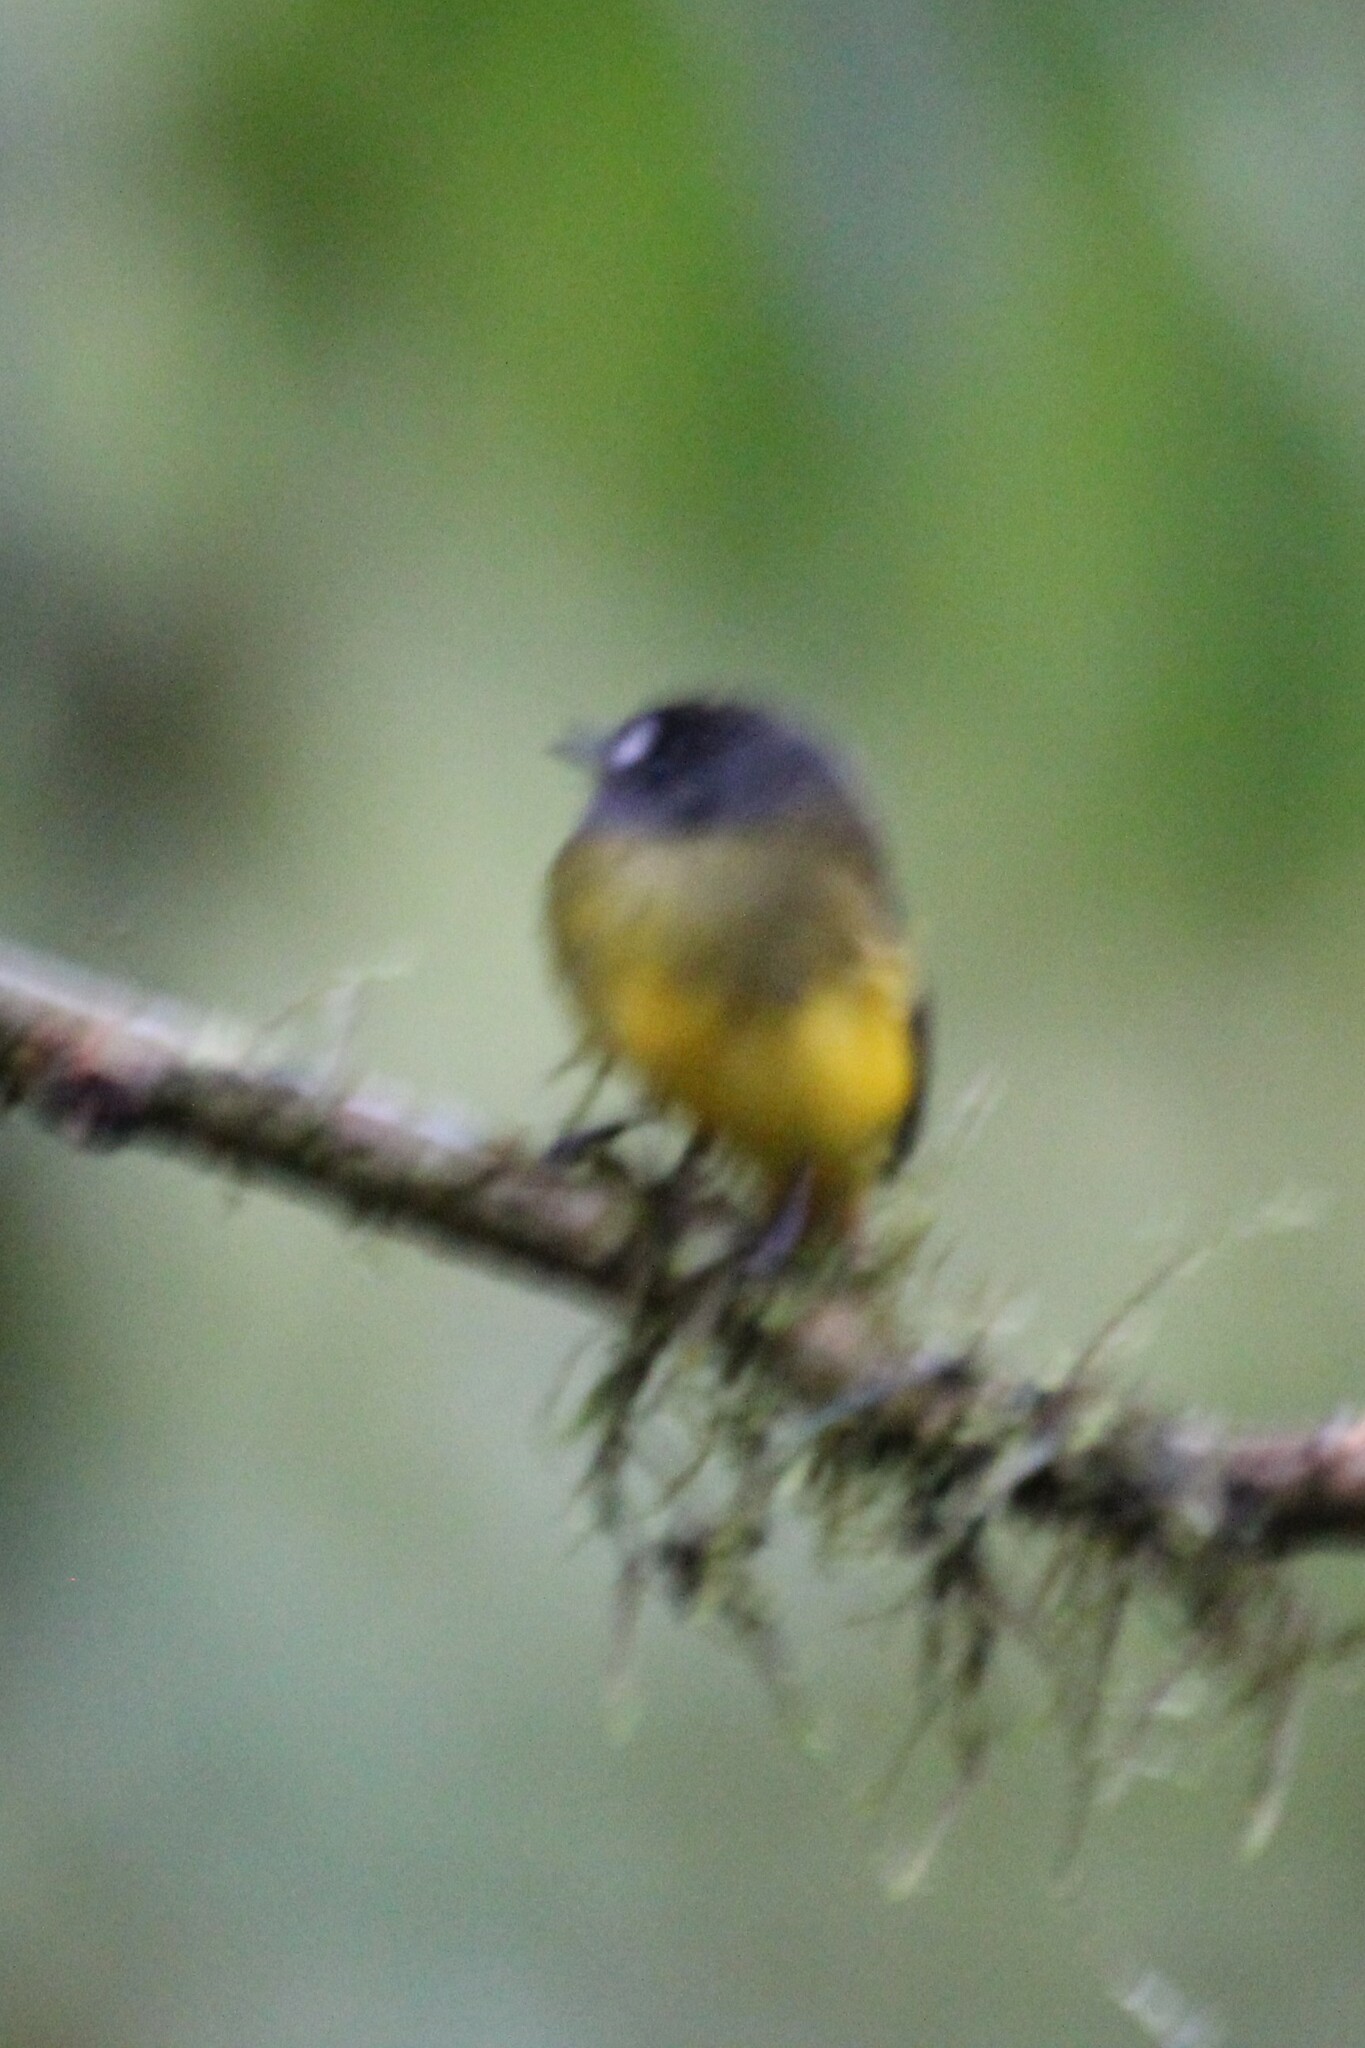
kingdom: Animalia
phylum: Chordata
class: Aves
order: Passeriformes
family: Tyrannidae
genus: Myiotriccus
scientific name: Myiotriccus ornatus
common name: Ornate flycatcher
